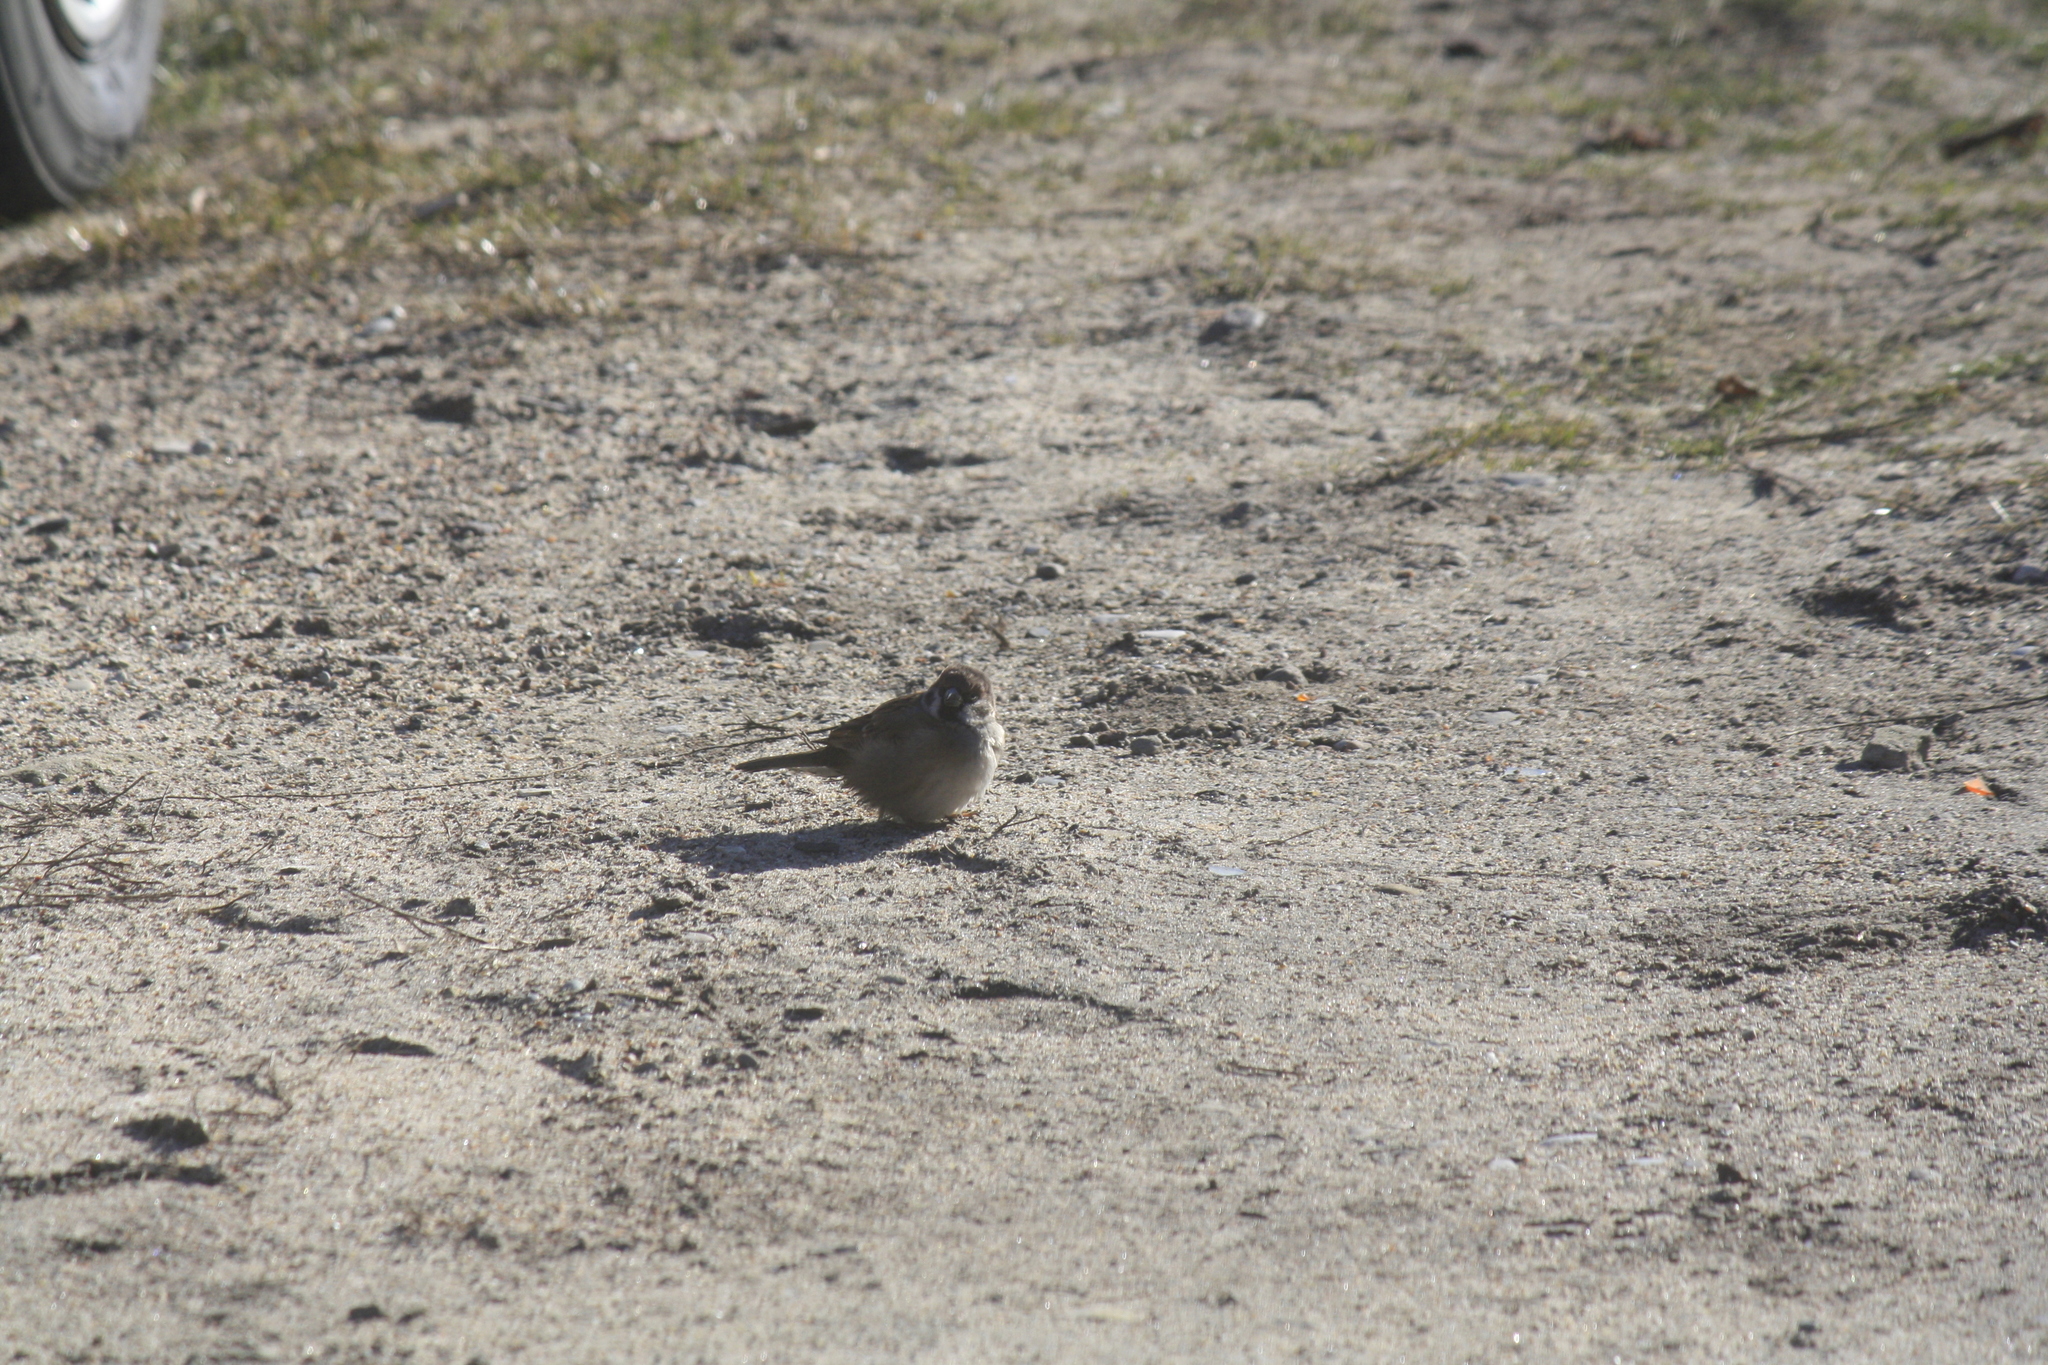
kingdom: Animalia
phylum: Chordata
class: Aves
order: Passeriformes
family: Passeridae
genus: Passer
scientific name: Passer montanus
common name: Eurasian tree sparrow
